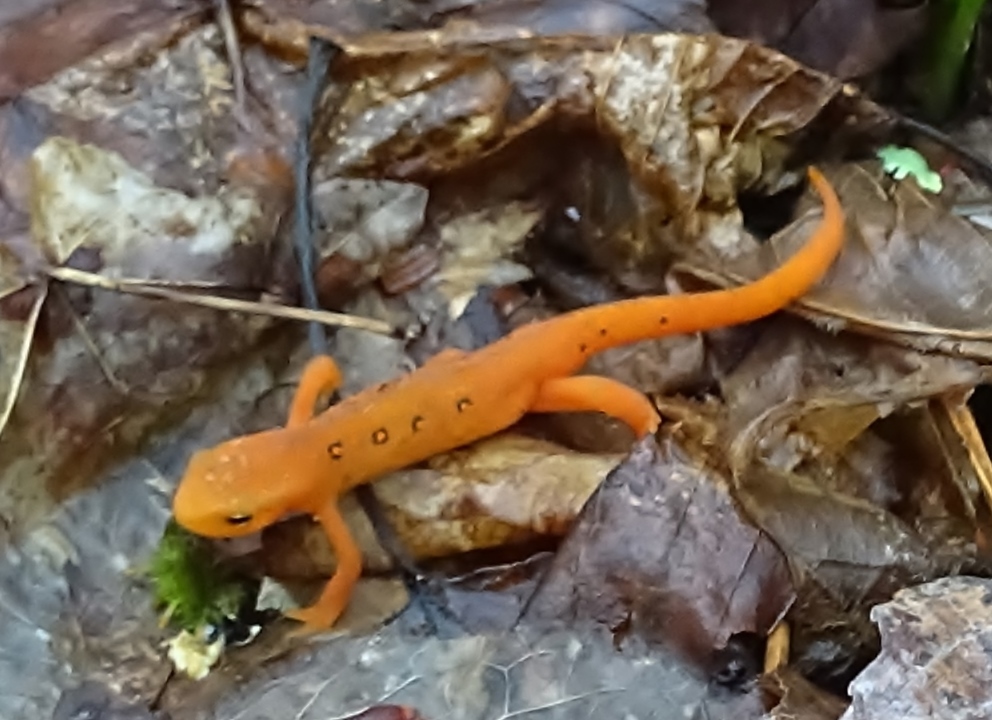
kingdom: Animalia
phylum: Chordata
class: Amphibia
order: Caudata
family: Salamandridae
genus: Notophthalmus
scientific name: Notophthalmus viridescens
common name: Eastern newt
